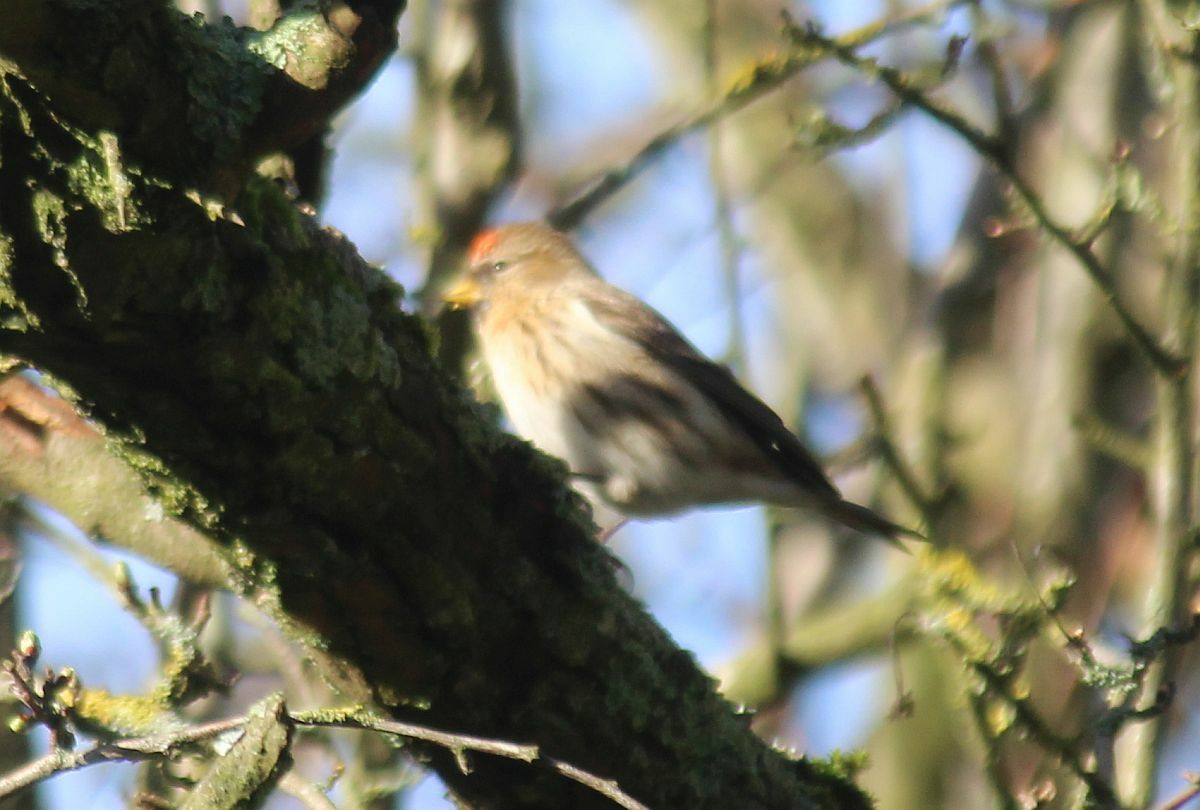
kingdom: Animalia
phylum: Chordata
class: Aves
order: Passeriformes
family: Fringillidae
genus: Acanthis
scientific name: Acanthis flammea
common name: Common redpoll
